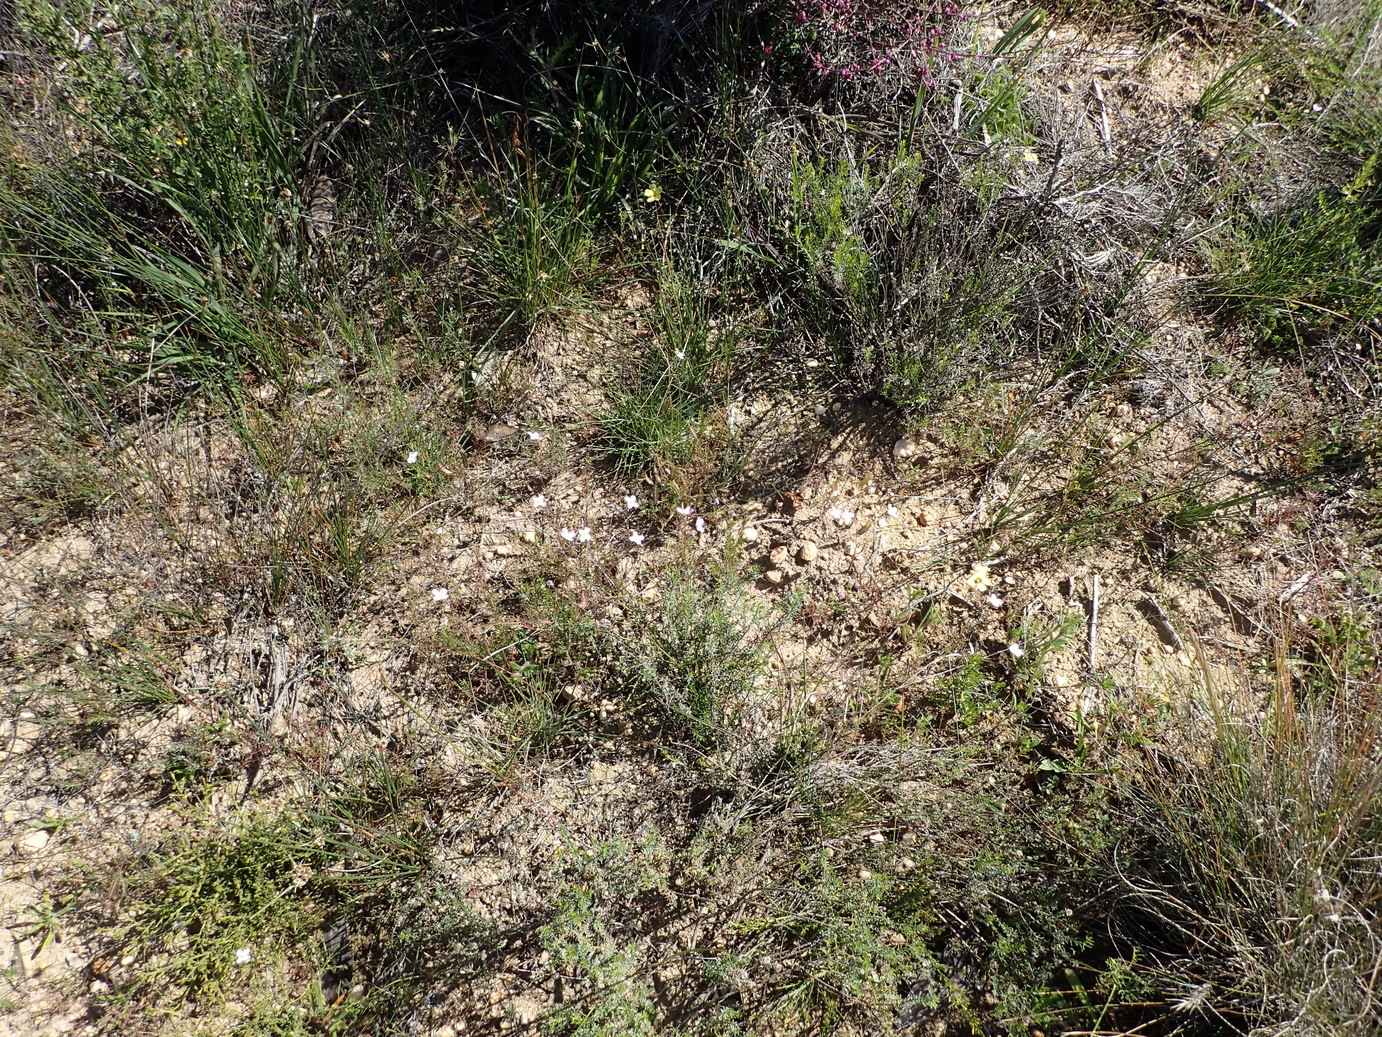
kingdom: Plantae
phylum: Tracheophyta
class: Magnoliopsida
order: Brassicales
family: Brassicaceae
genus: Heliophila
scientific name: Heliophila thunbergii
